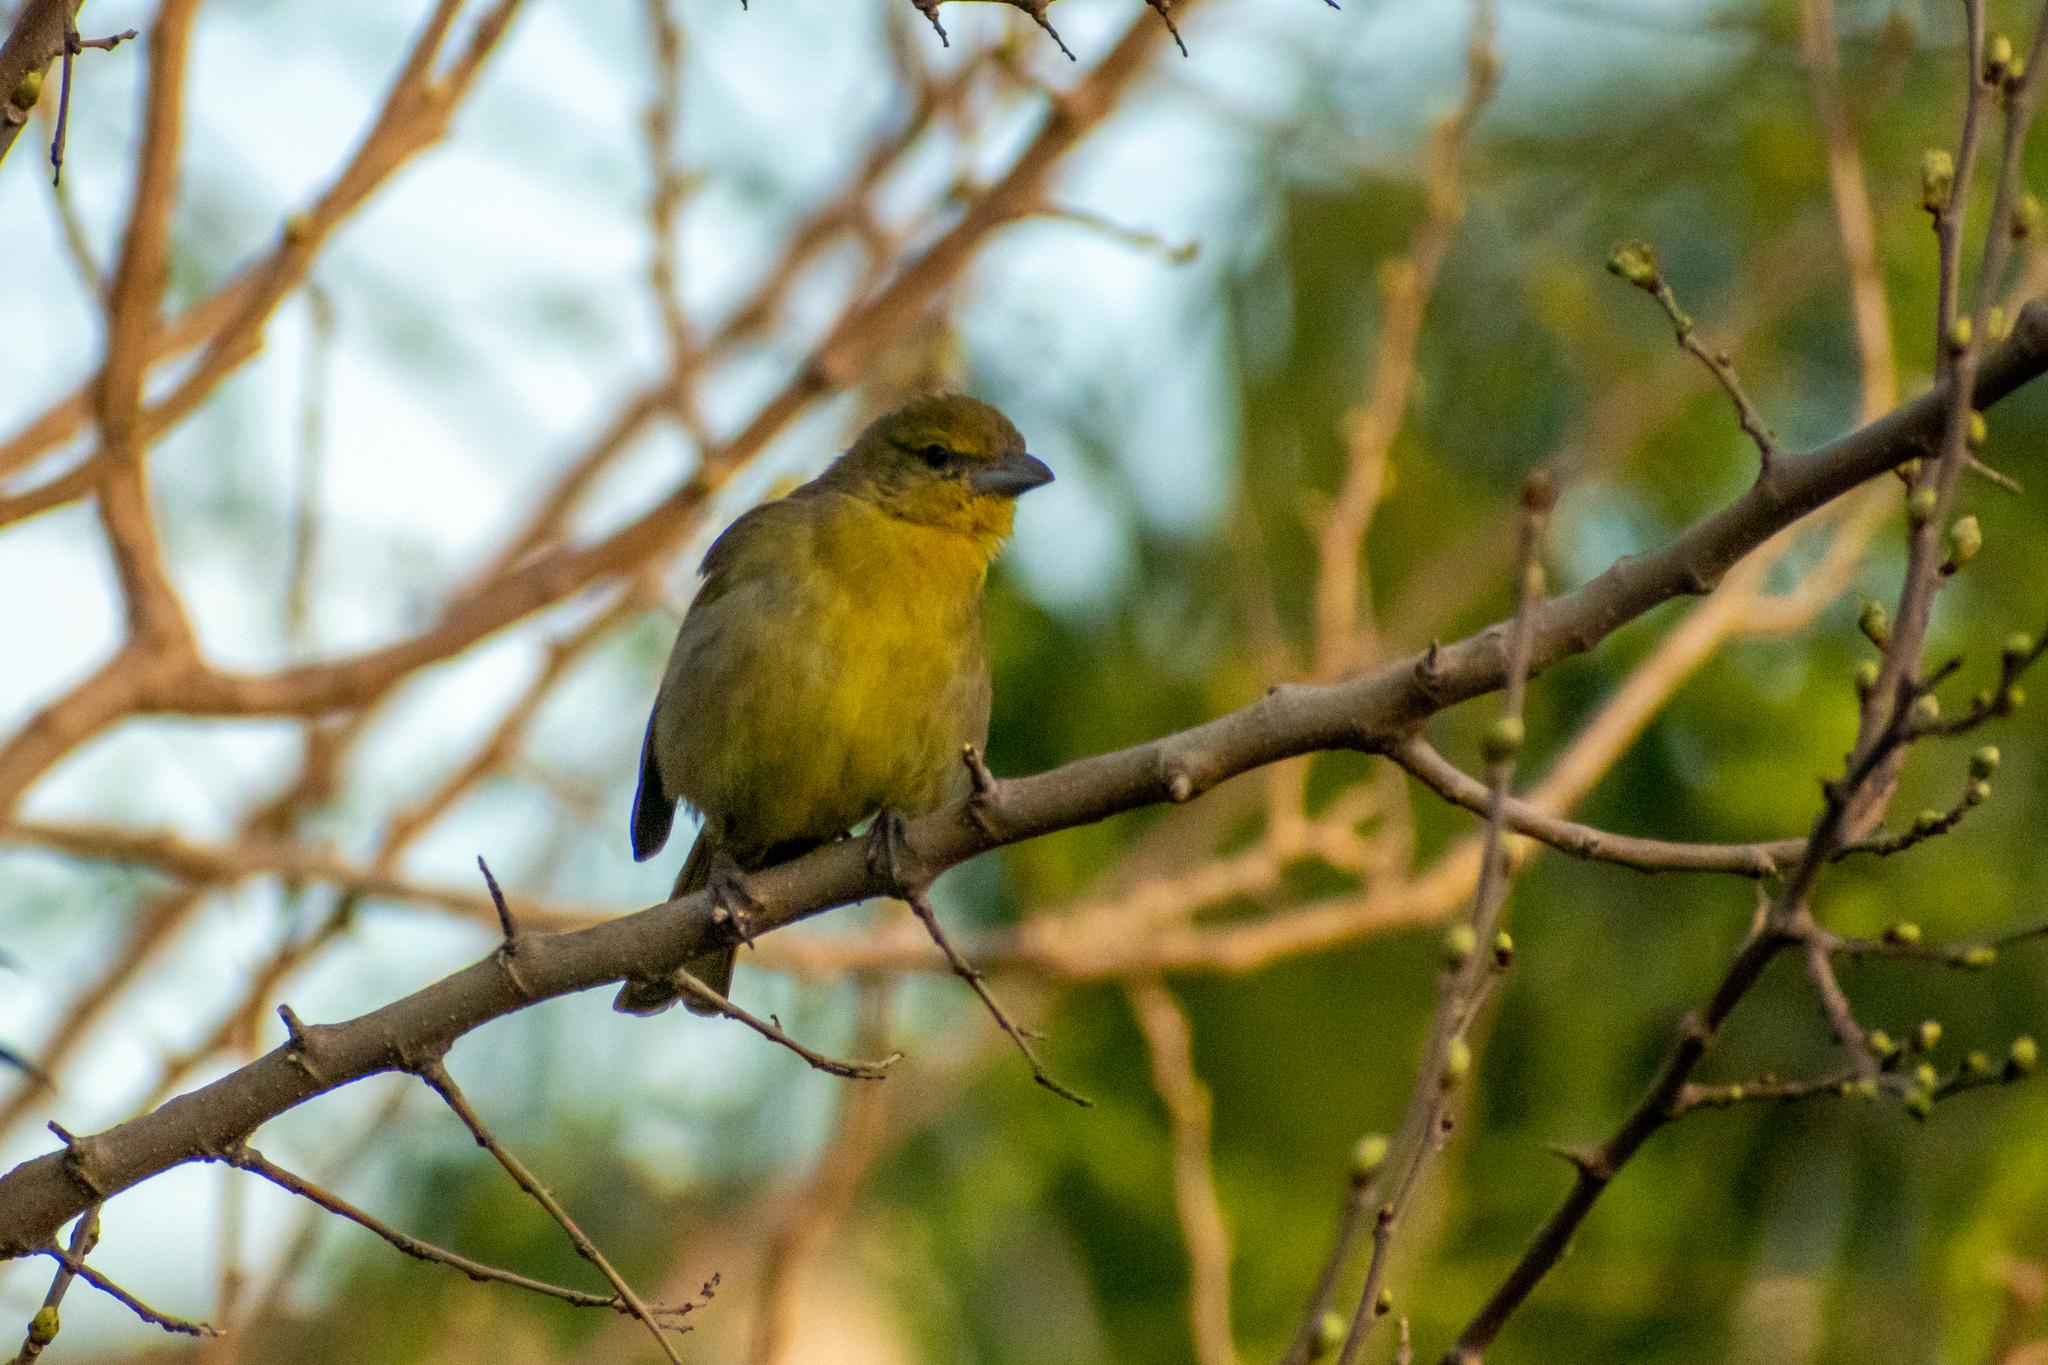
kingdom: Animalia
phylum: Chordata
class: Aves
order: Passeriformes
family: Cardinalidae
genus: Piranga
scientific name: Piranga flava
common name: Red tanager
